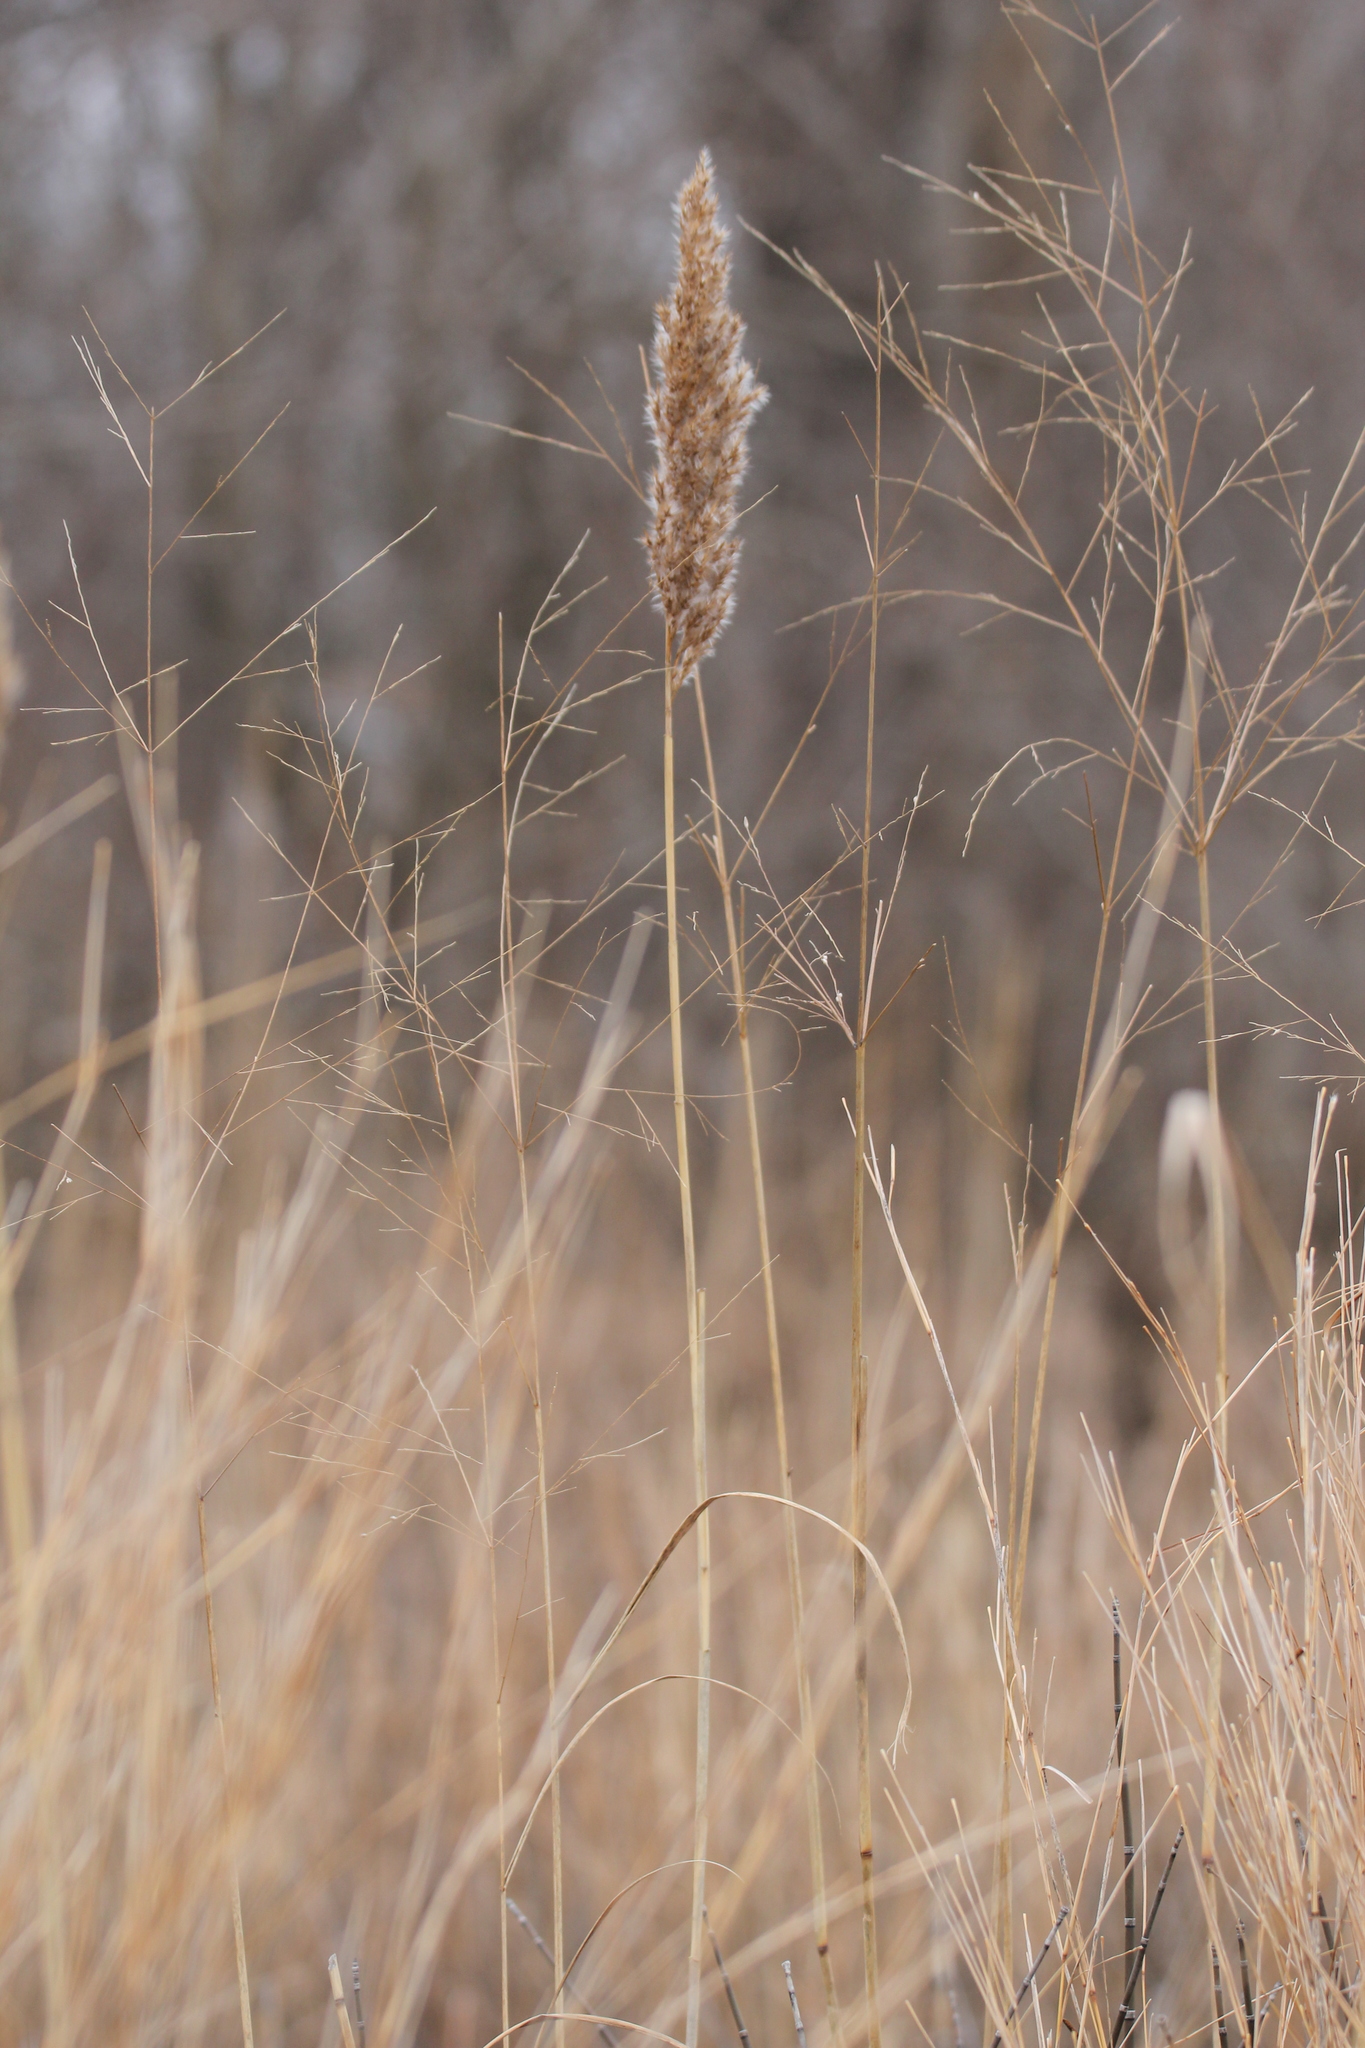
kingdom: Plantae
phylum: Tracheophyta
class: Liliopsida
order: Poales
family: Poaceae
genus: Phragmites
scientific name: Phragmites australis
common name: Common reed
